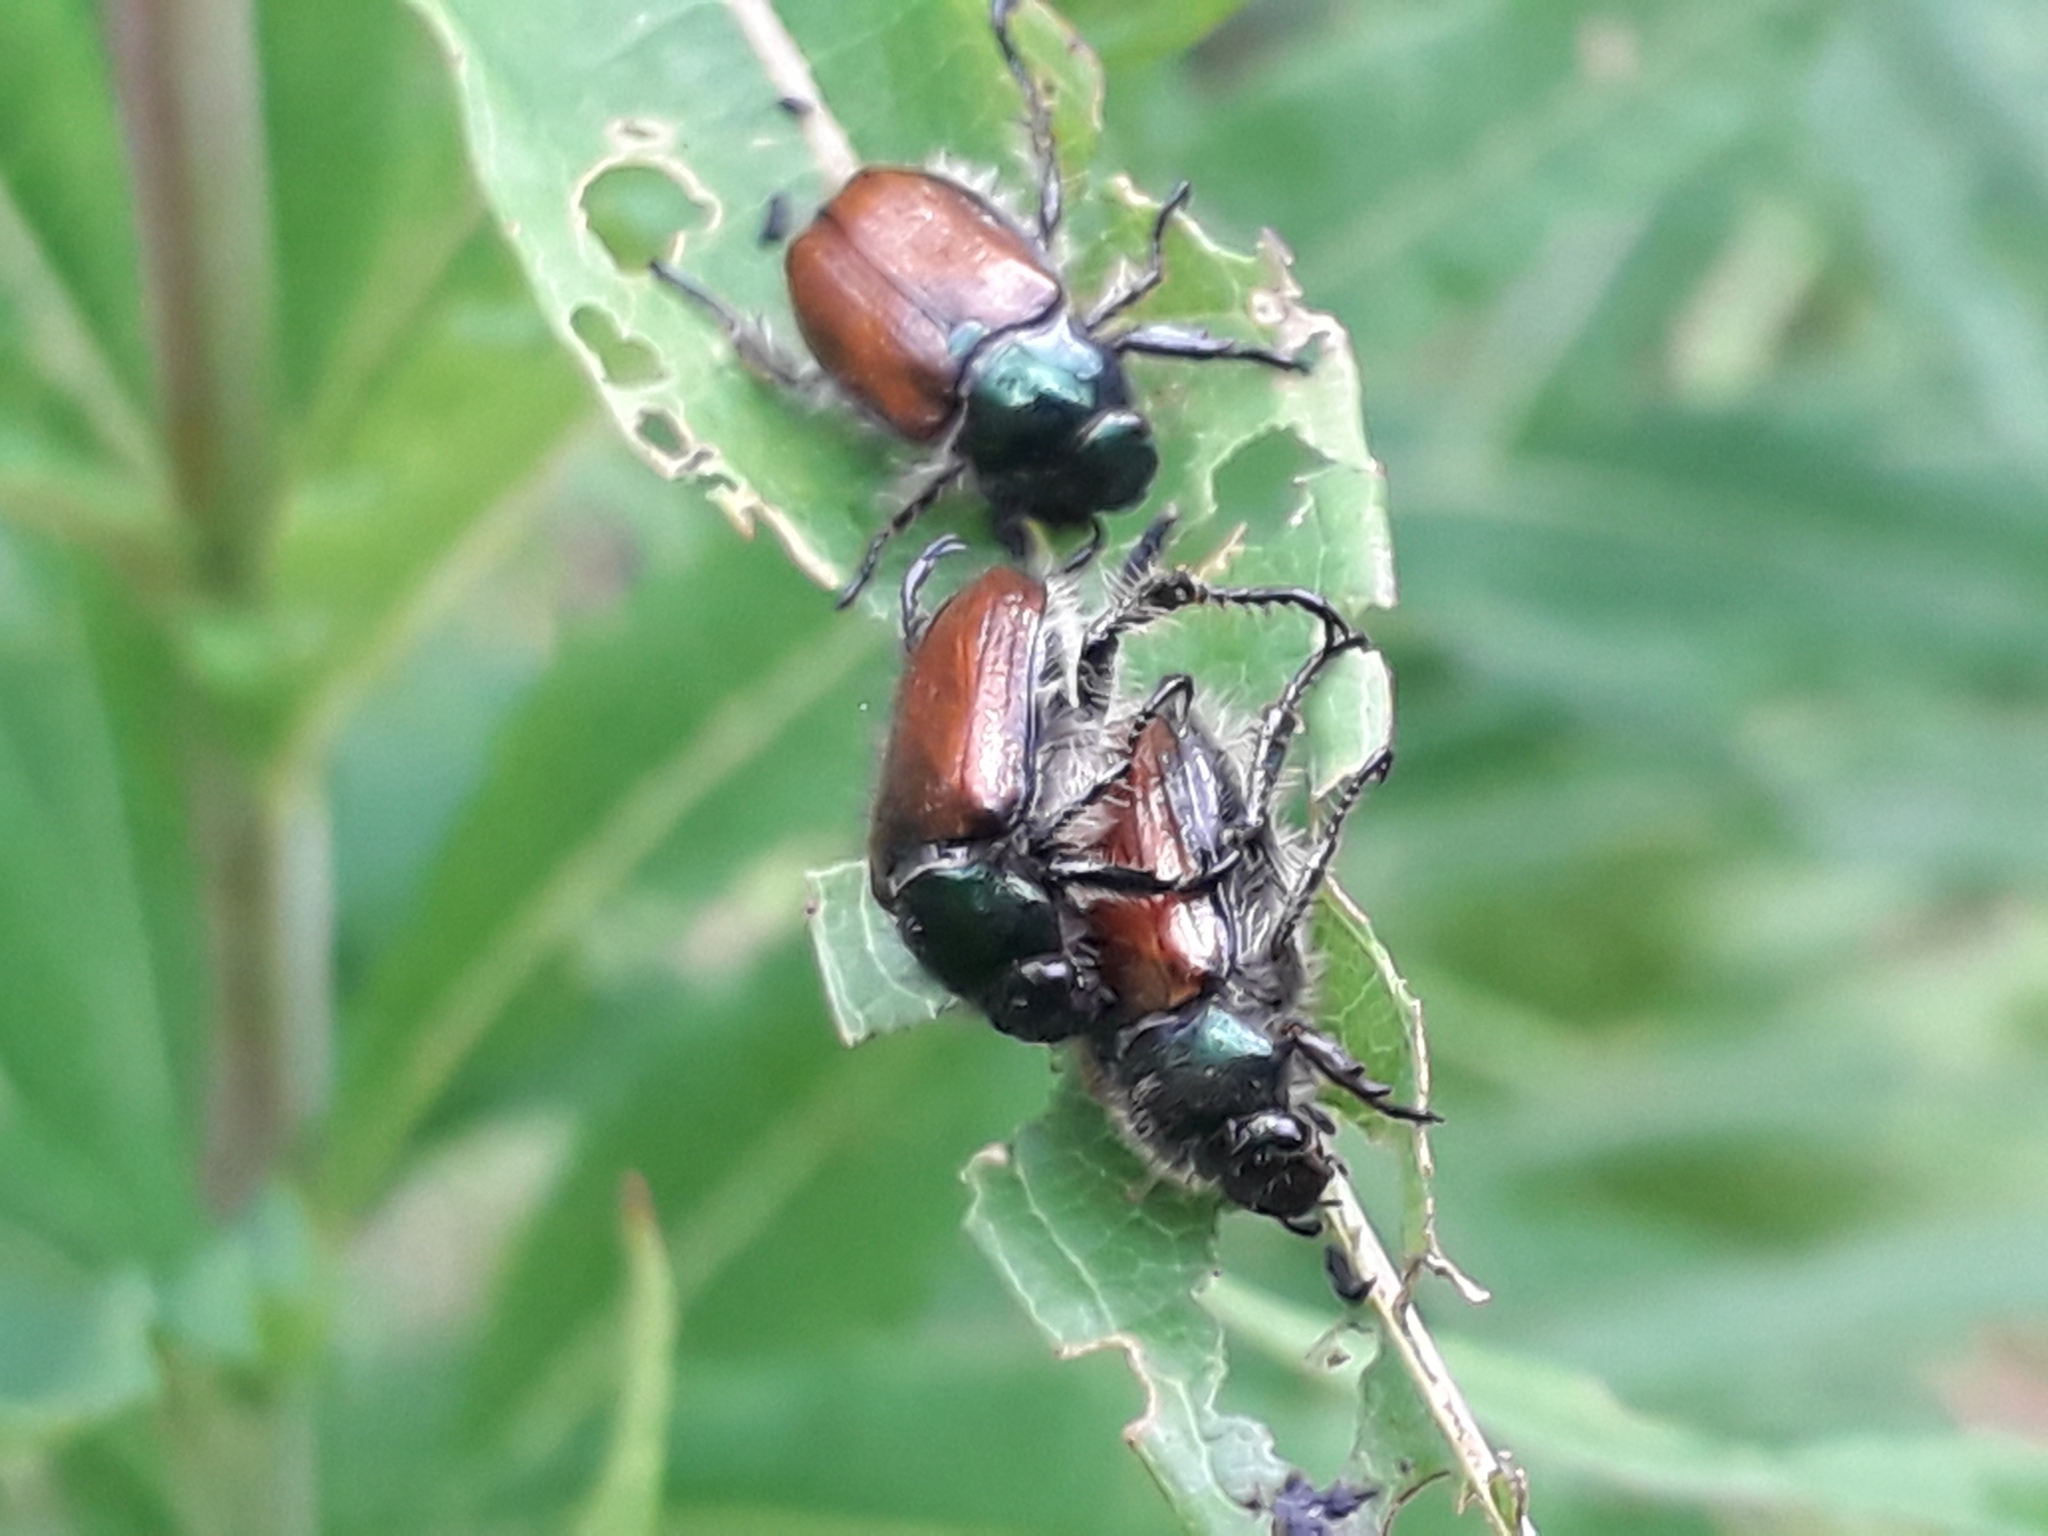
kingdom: Animalia
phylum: Arthropoda
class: Insecta
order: Coleoptera
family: Scarabaeidae
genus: Phyllopertha
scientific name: Phyllopertha horticola
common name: Garden chafer
